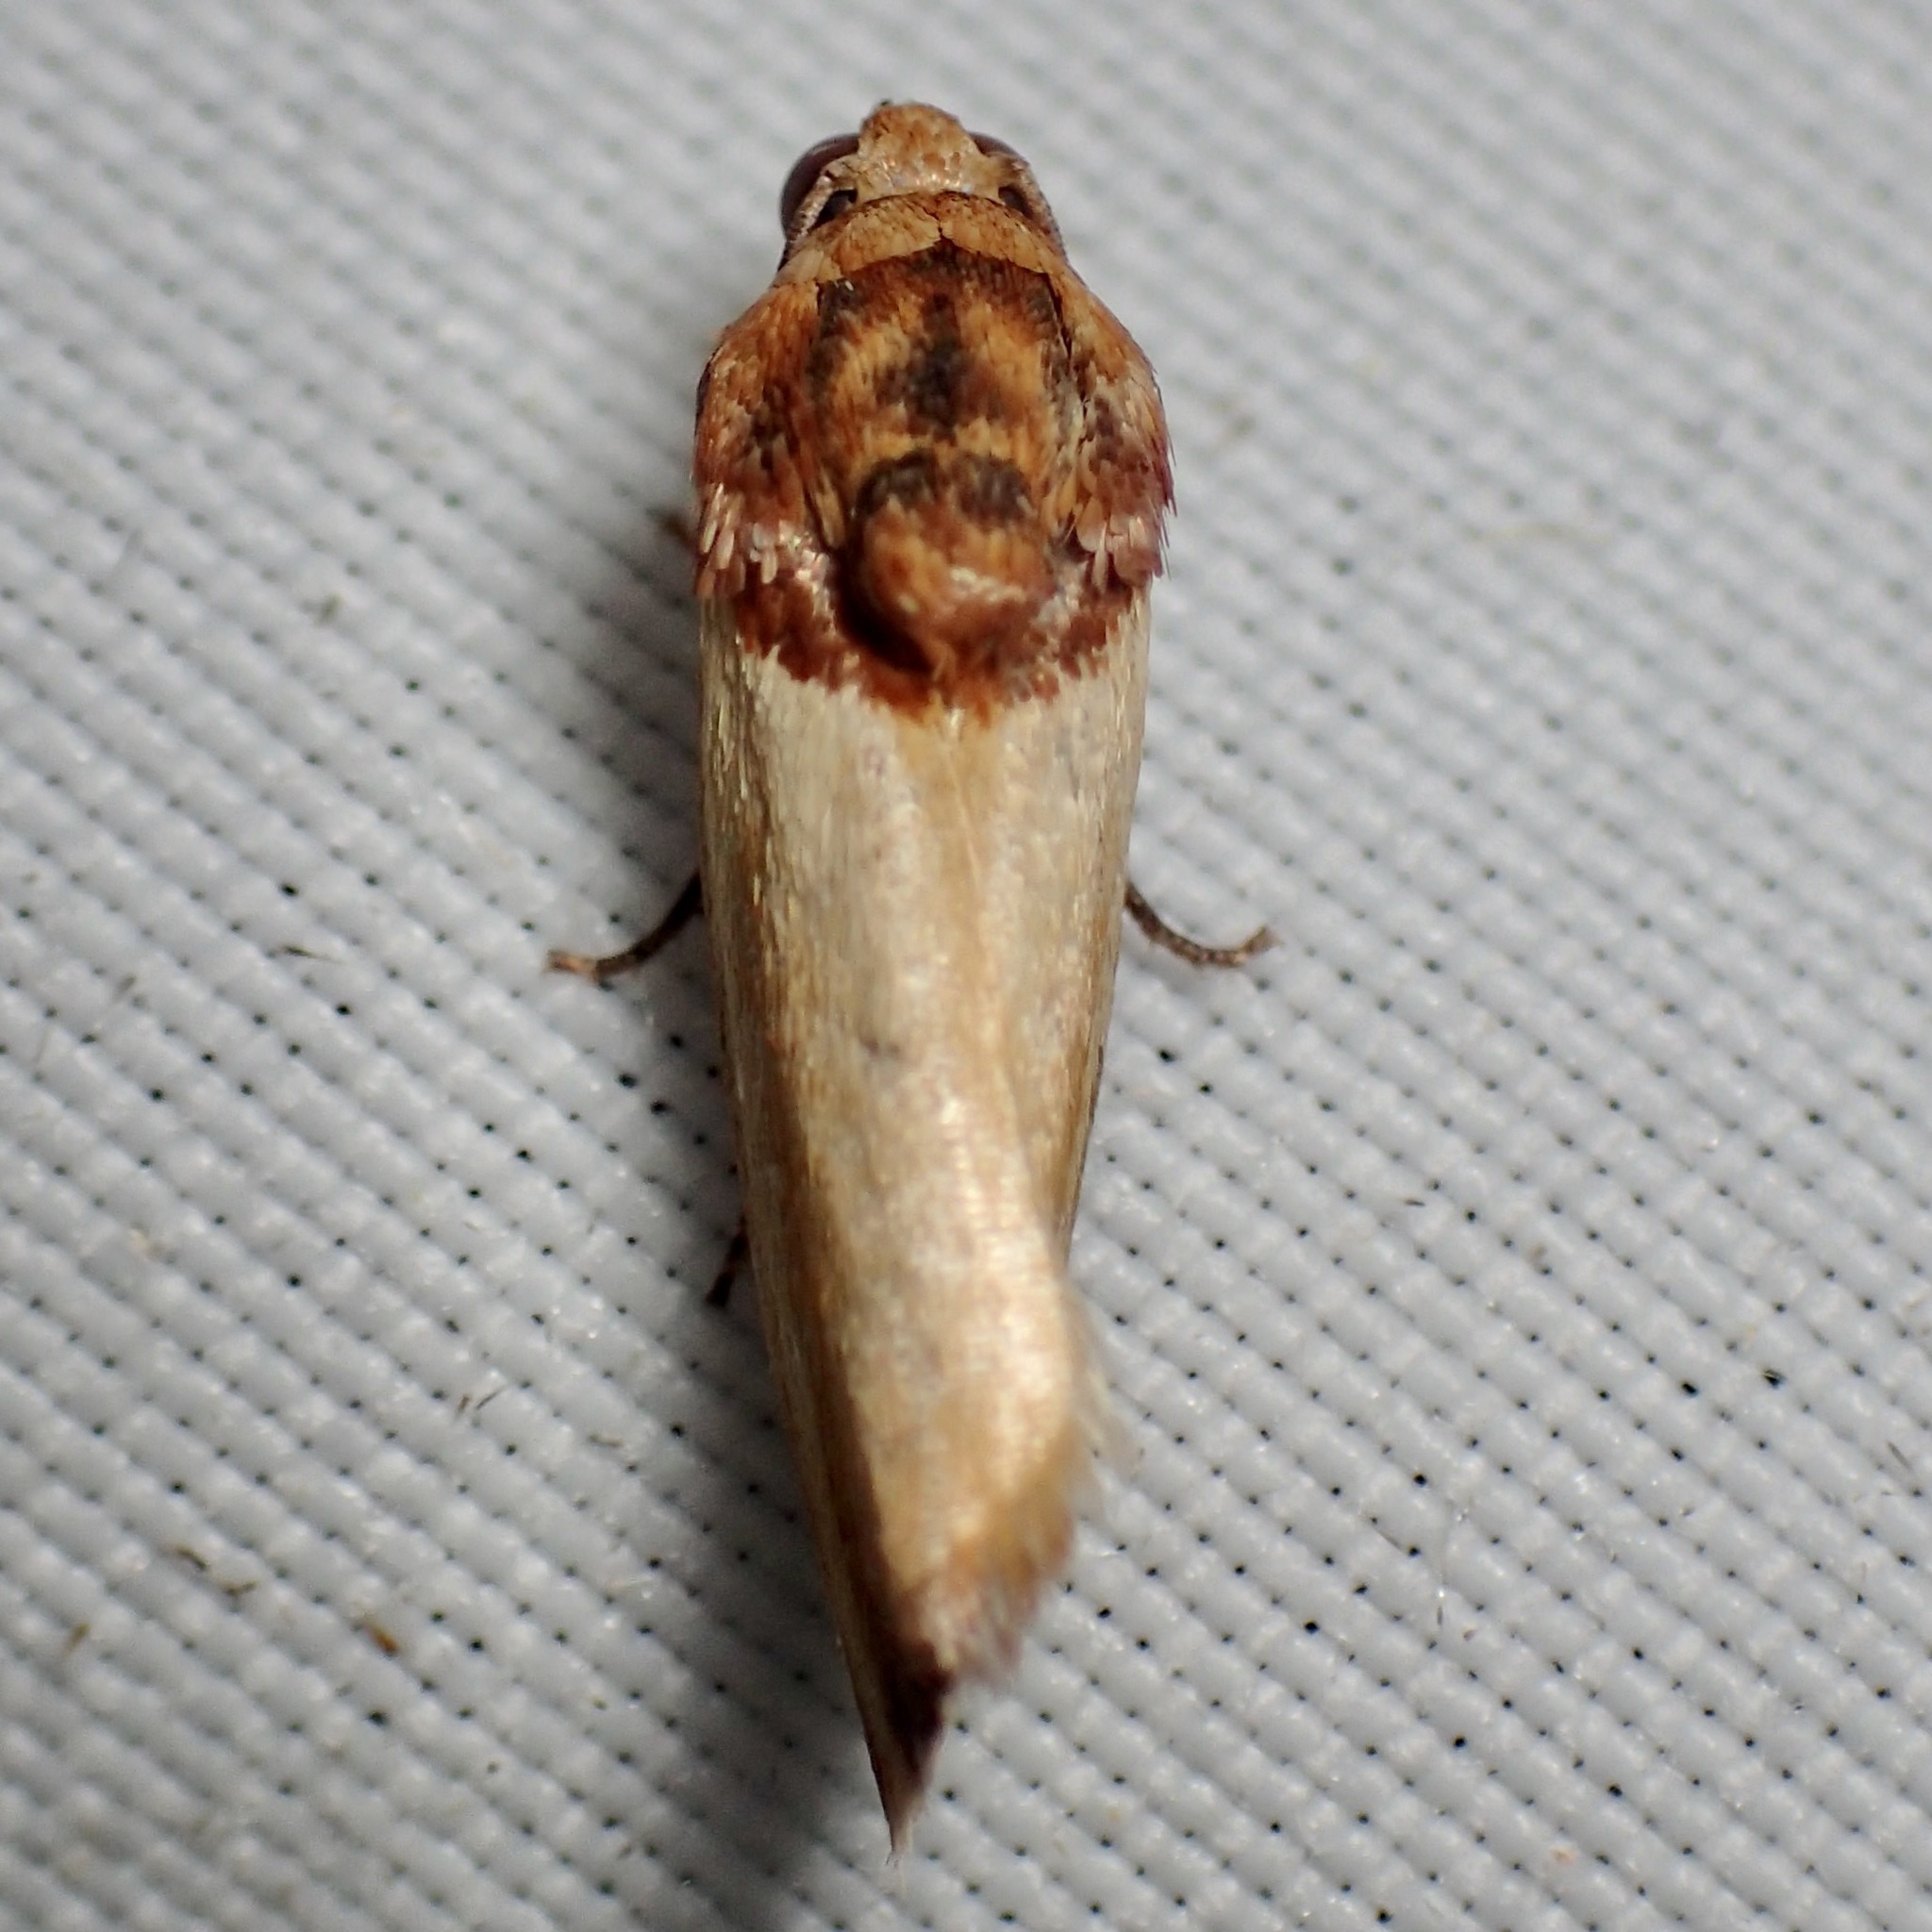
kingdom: Animalia
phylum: Arthropoda
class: Insecta
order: Lepidoptera
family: Noctuidae
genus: Spragueia
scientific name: Spragueia apicalis
